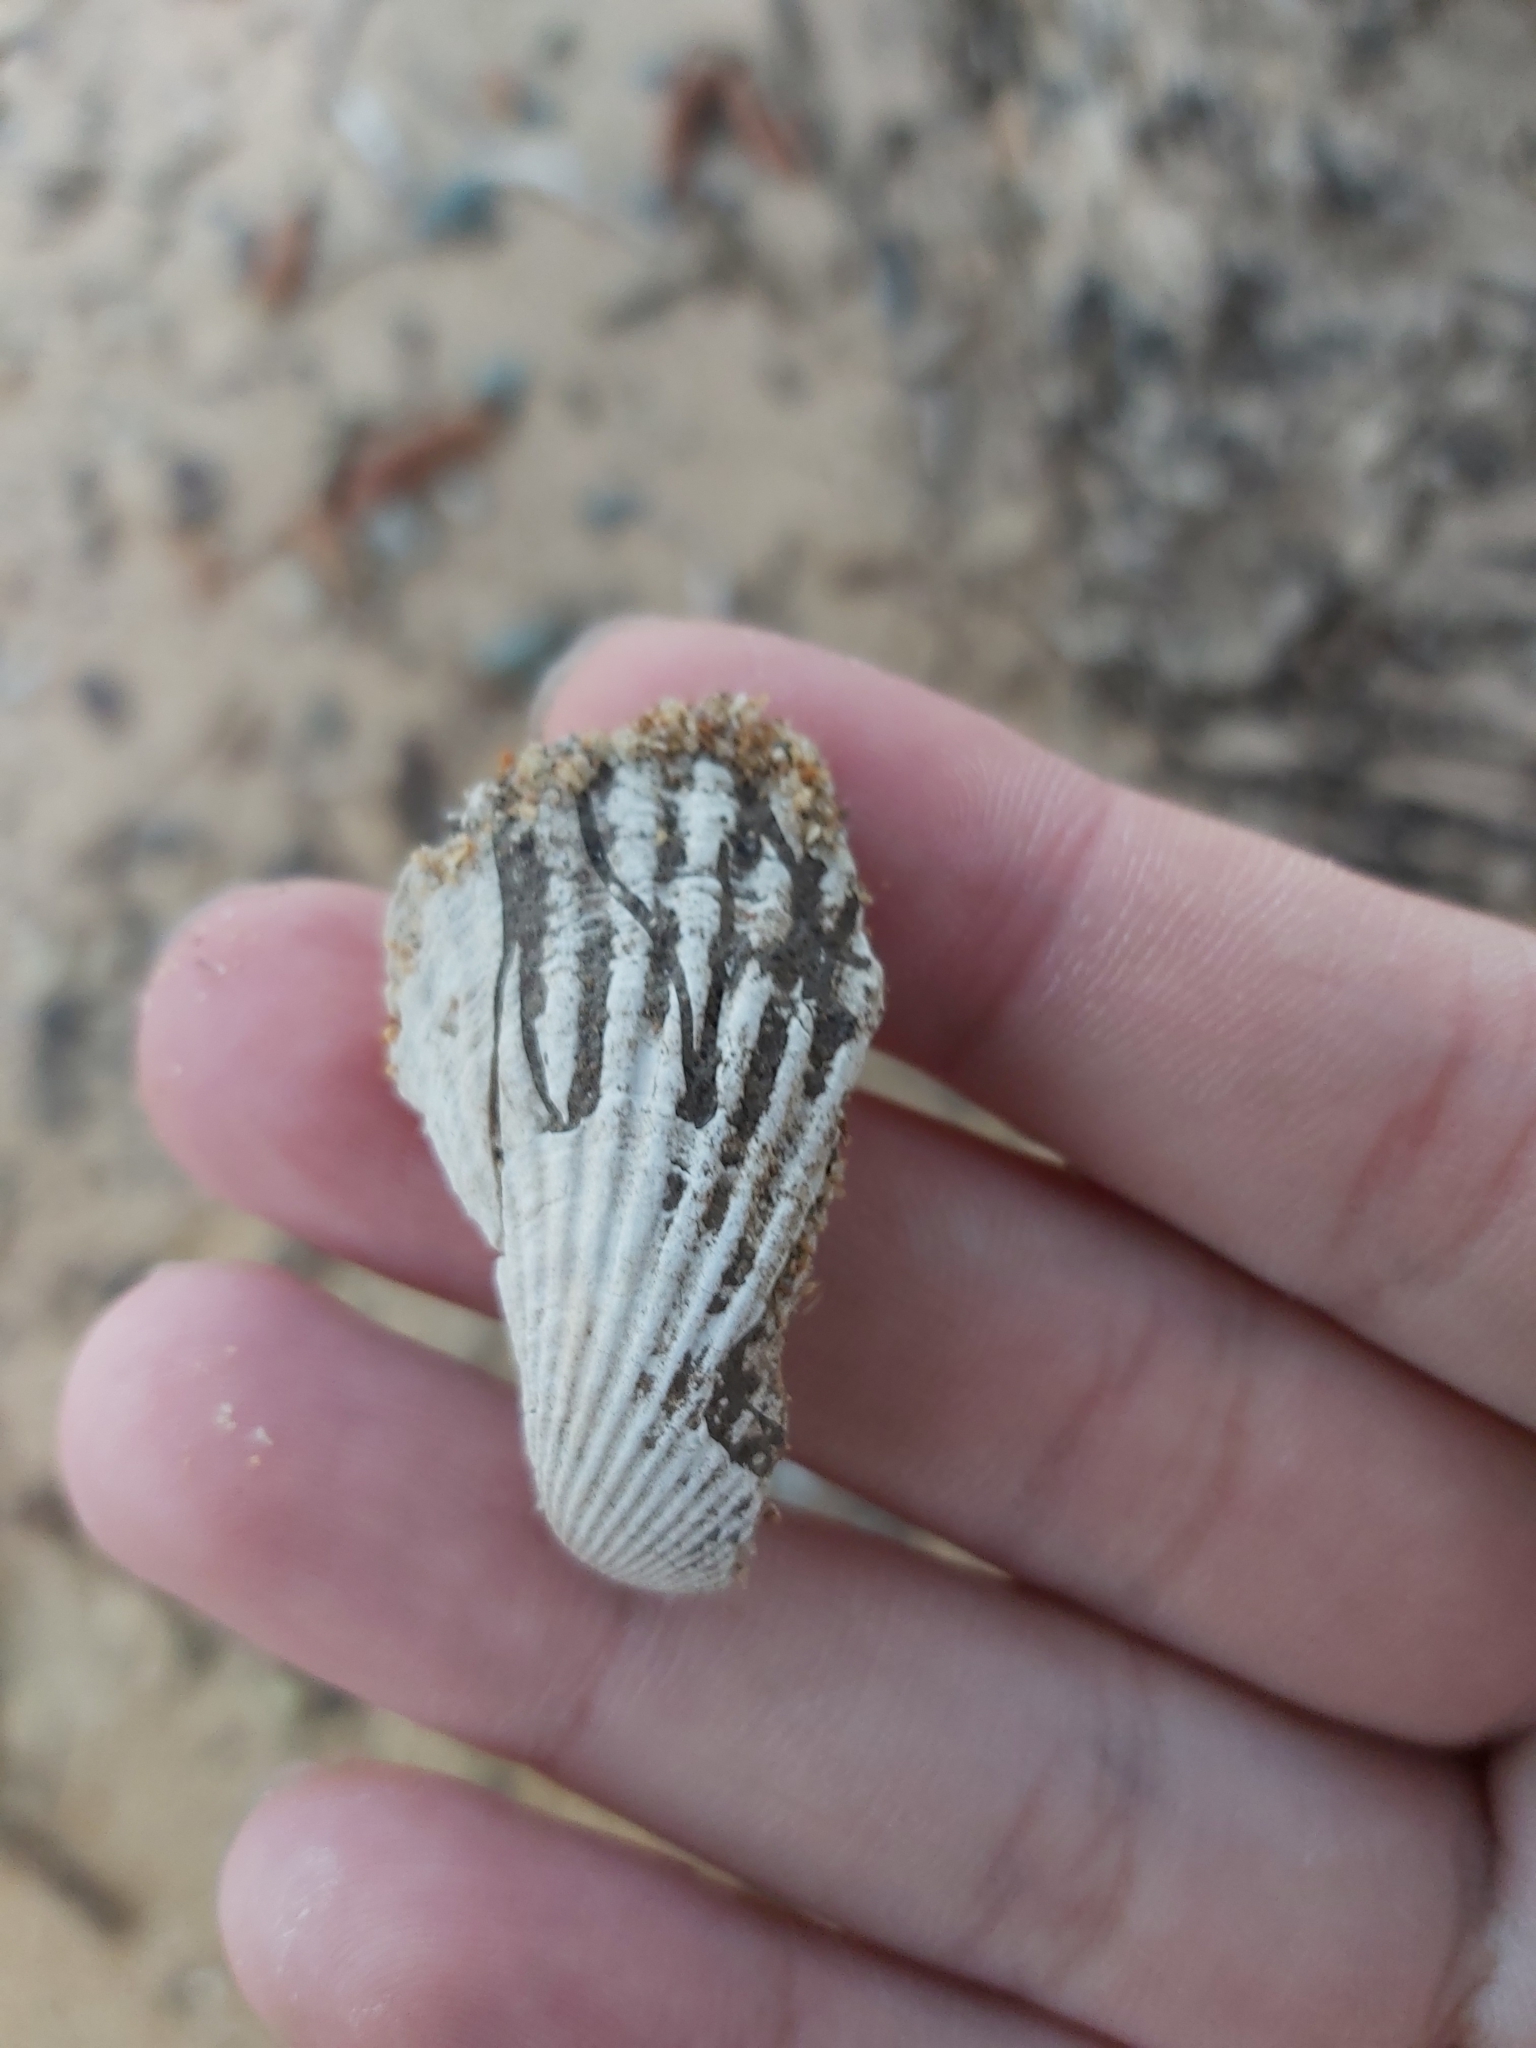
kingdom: Animalia
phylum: Mollusca
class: Bivalvia
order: Arcida
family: Arcidae
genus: Anadara
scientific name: Anadara trapezia
